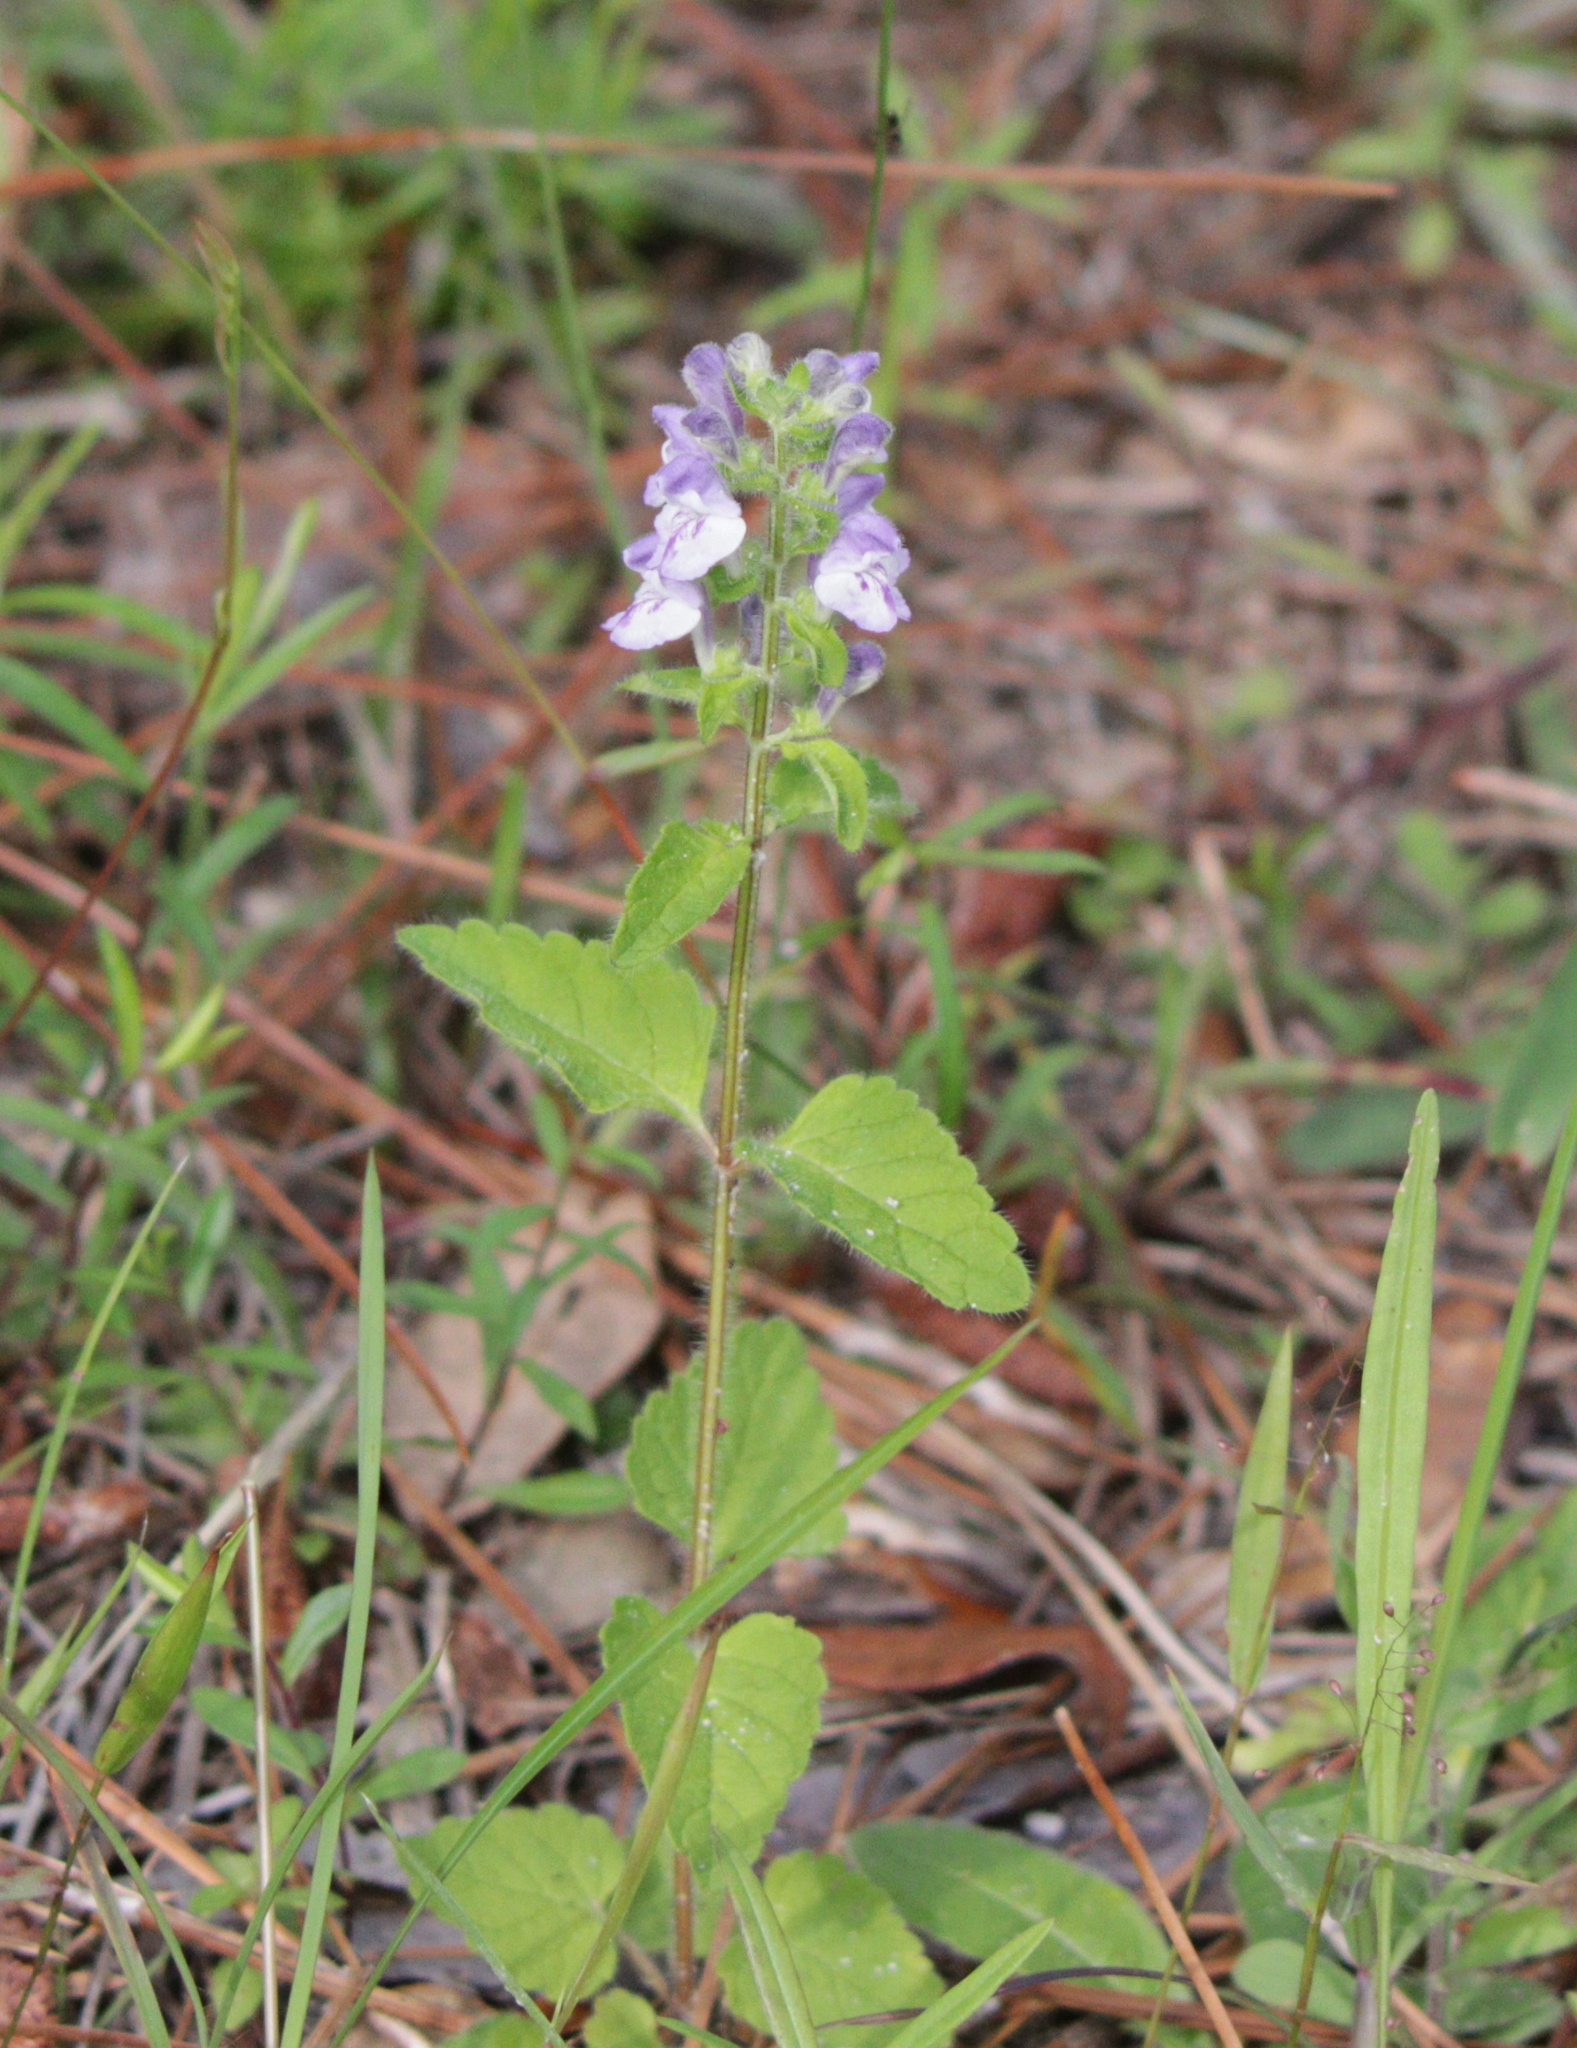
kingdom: Plantae
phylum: Tracheophyta
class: Magnoliopsida
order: Lamiales
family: Lamiaceae
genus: Scutellaria
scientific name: Scutellaria elliptica
